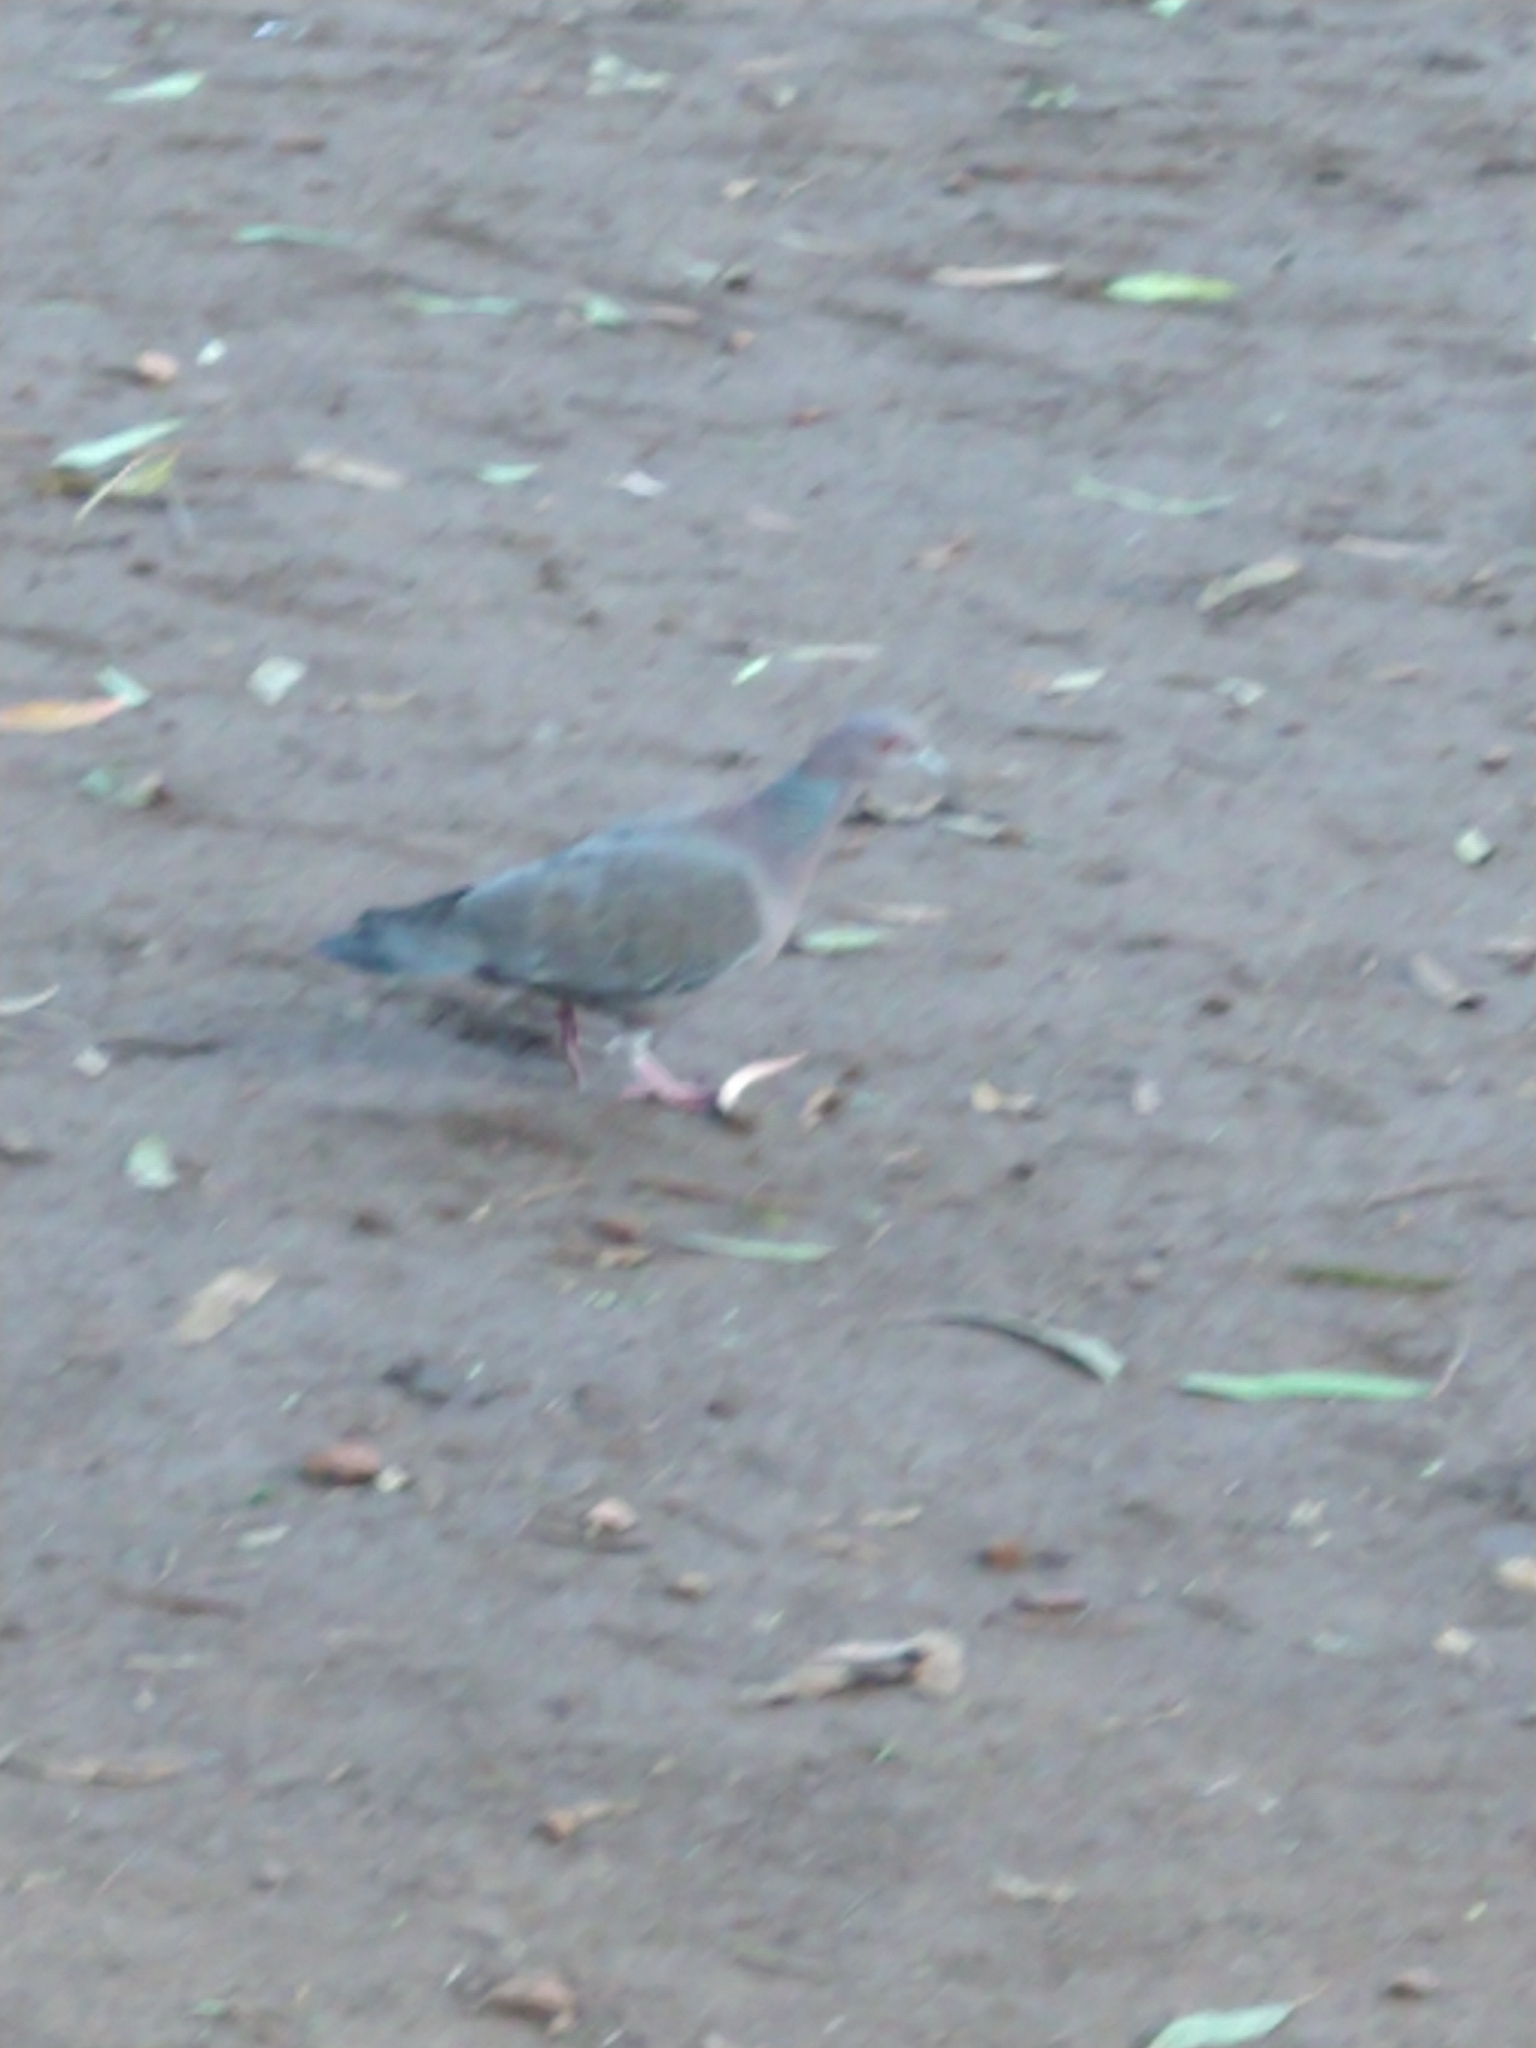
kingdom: Animalia
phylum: Chordata
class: Aves
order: Columbiformes
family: Columbidae
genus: Patagioenas
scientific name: Patagioenas picazuro
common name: Picazuro pigeon
